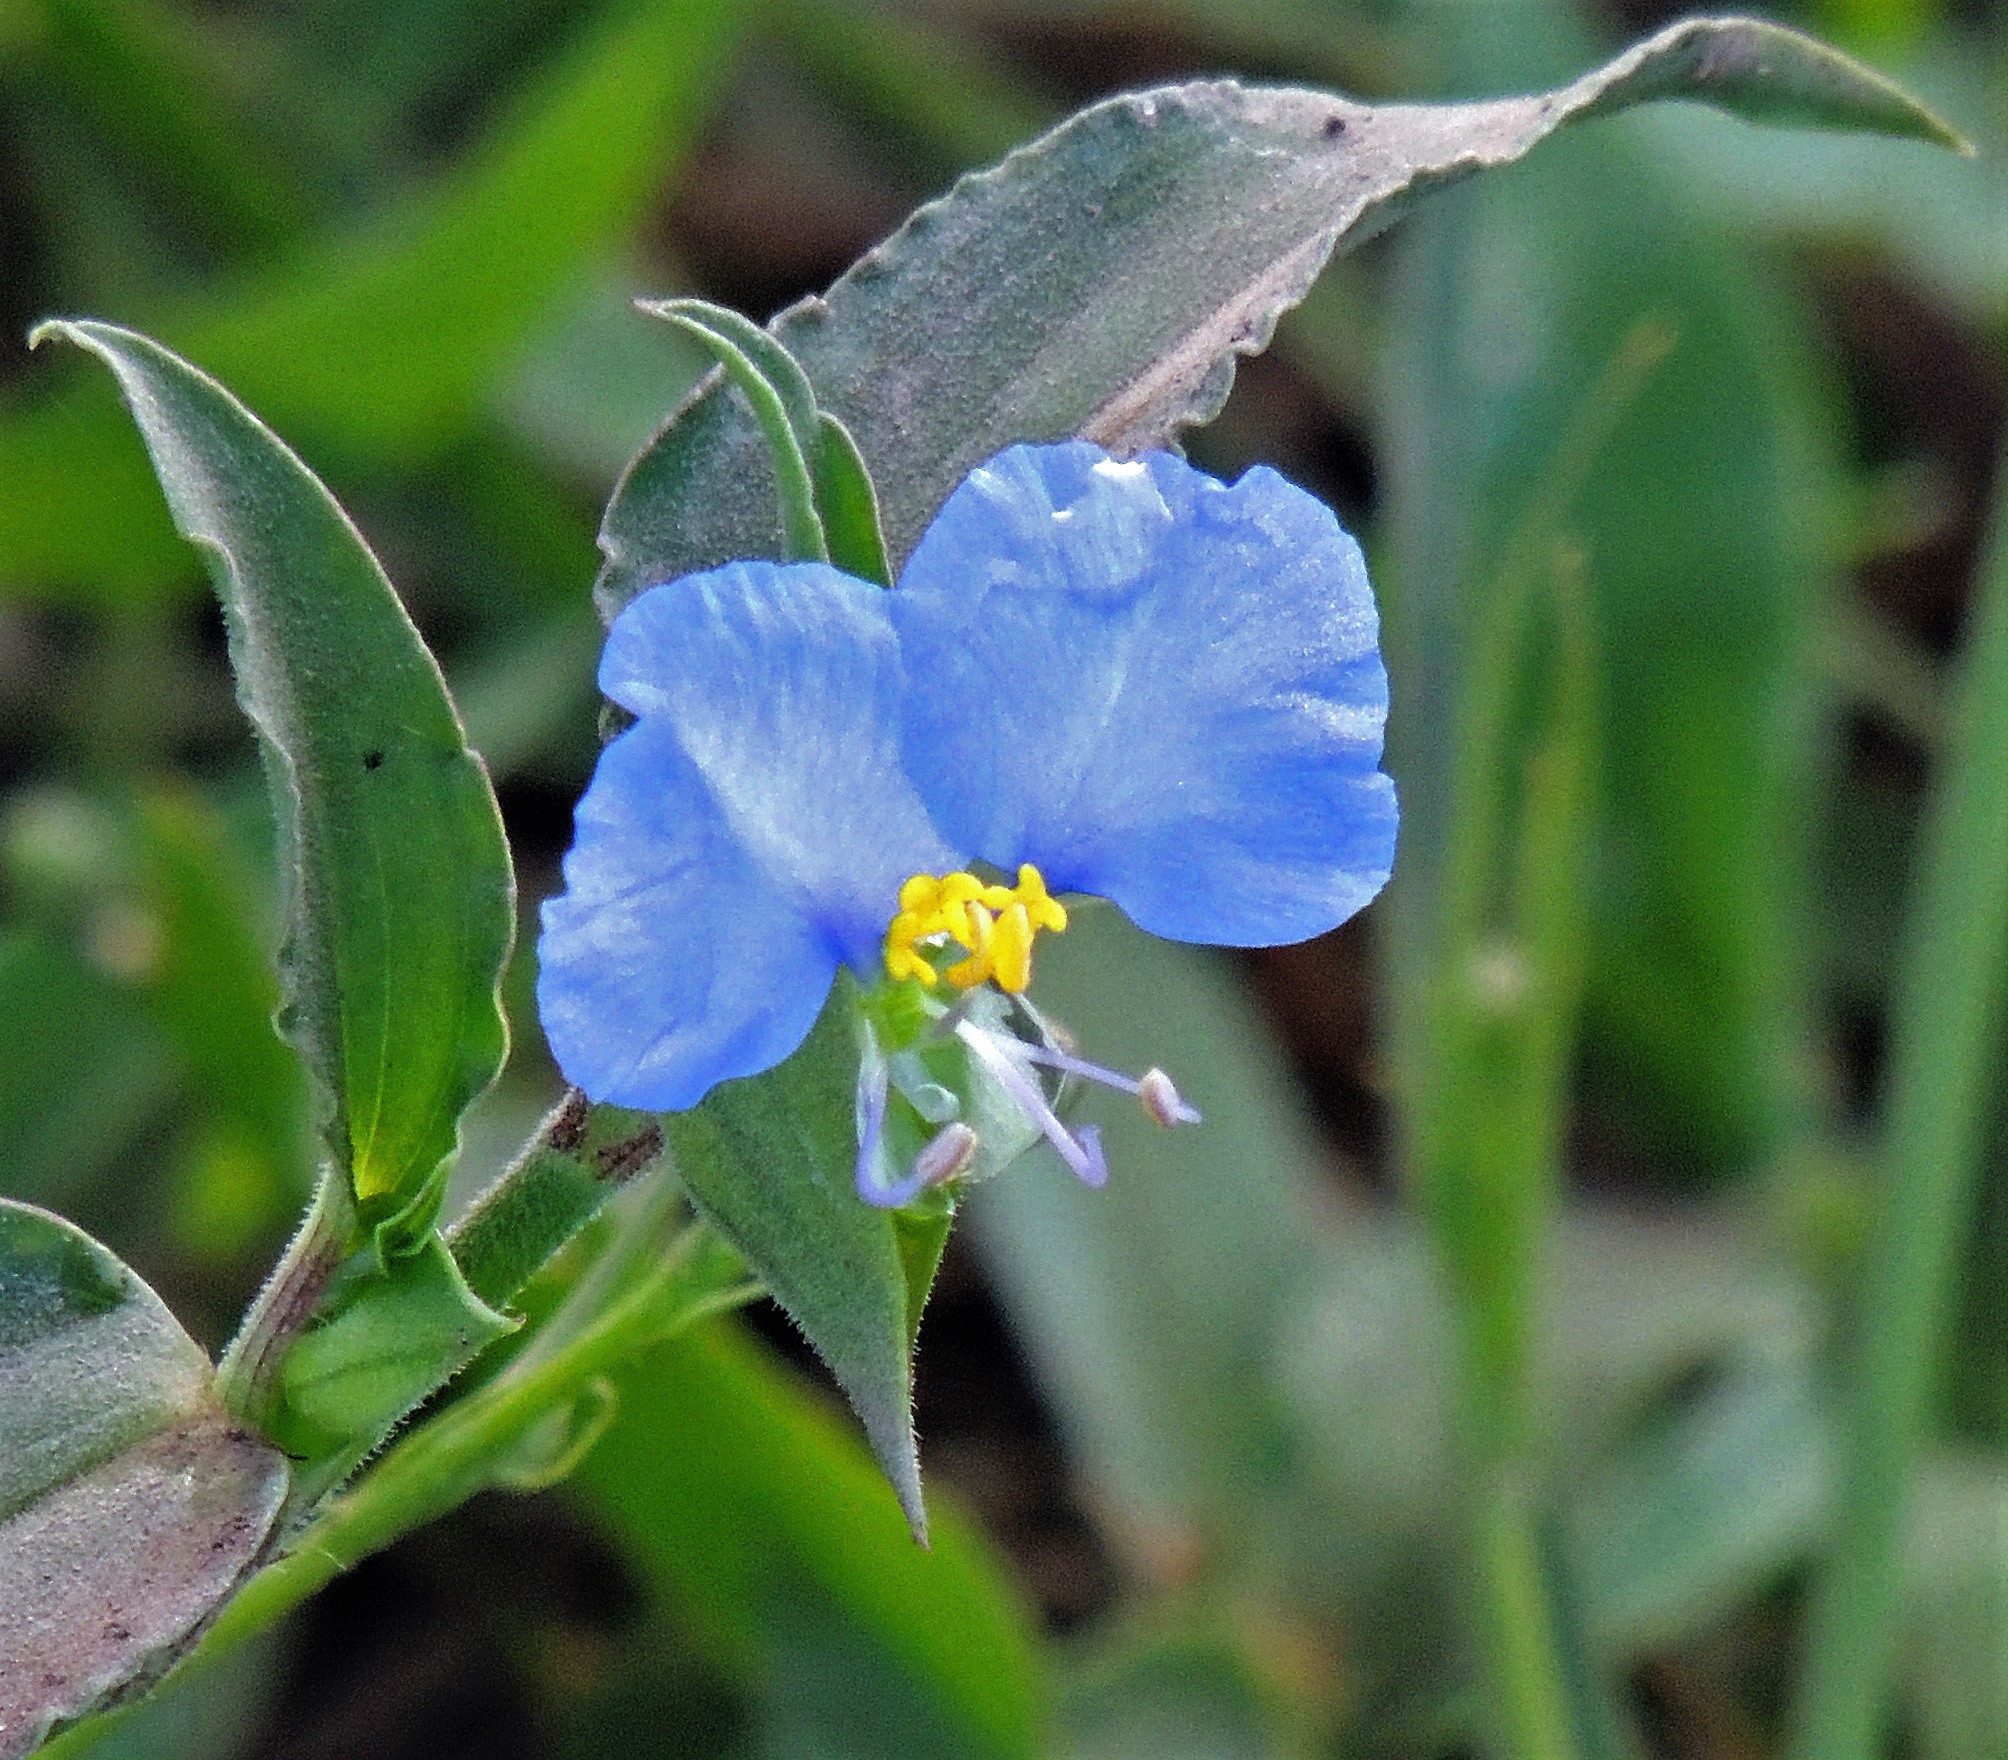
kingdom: Plantae
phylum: Tracheophyta
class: Liliopsida
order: Commelinales
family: Commelinaceae
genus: Commelina
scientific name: Commelina erecta
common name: Blousel blommetjie
